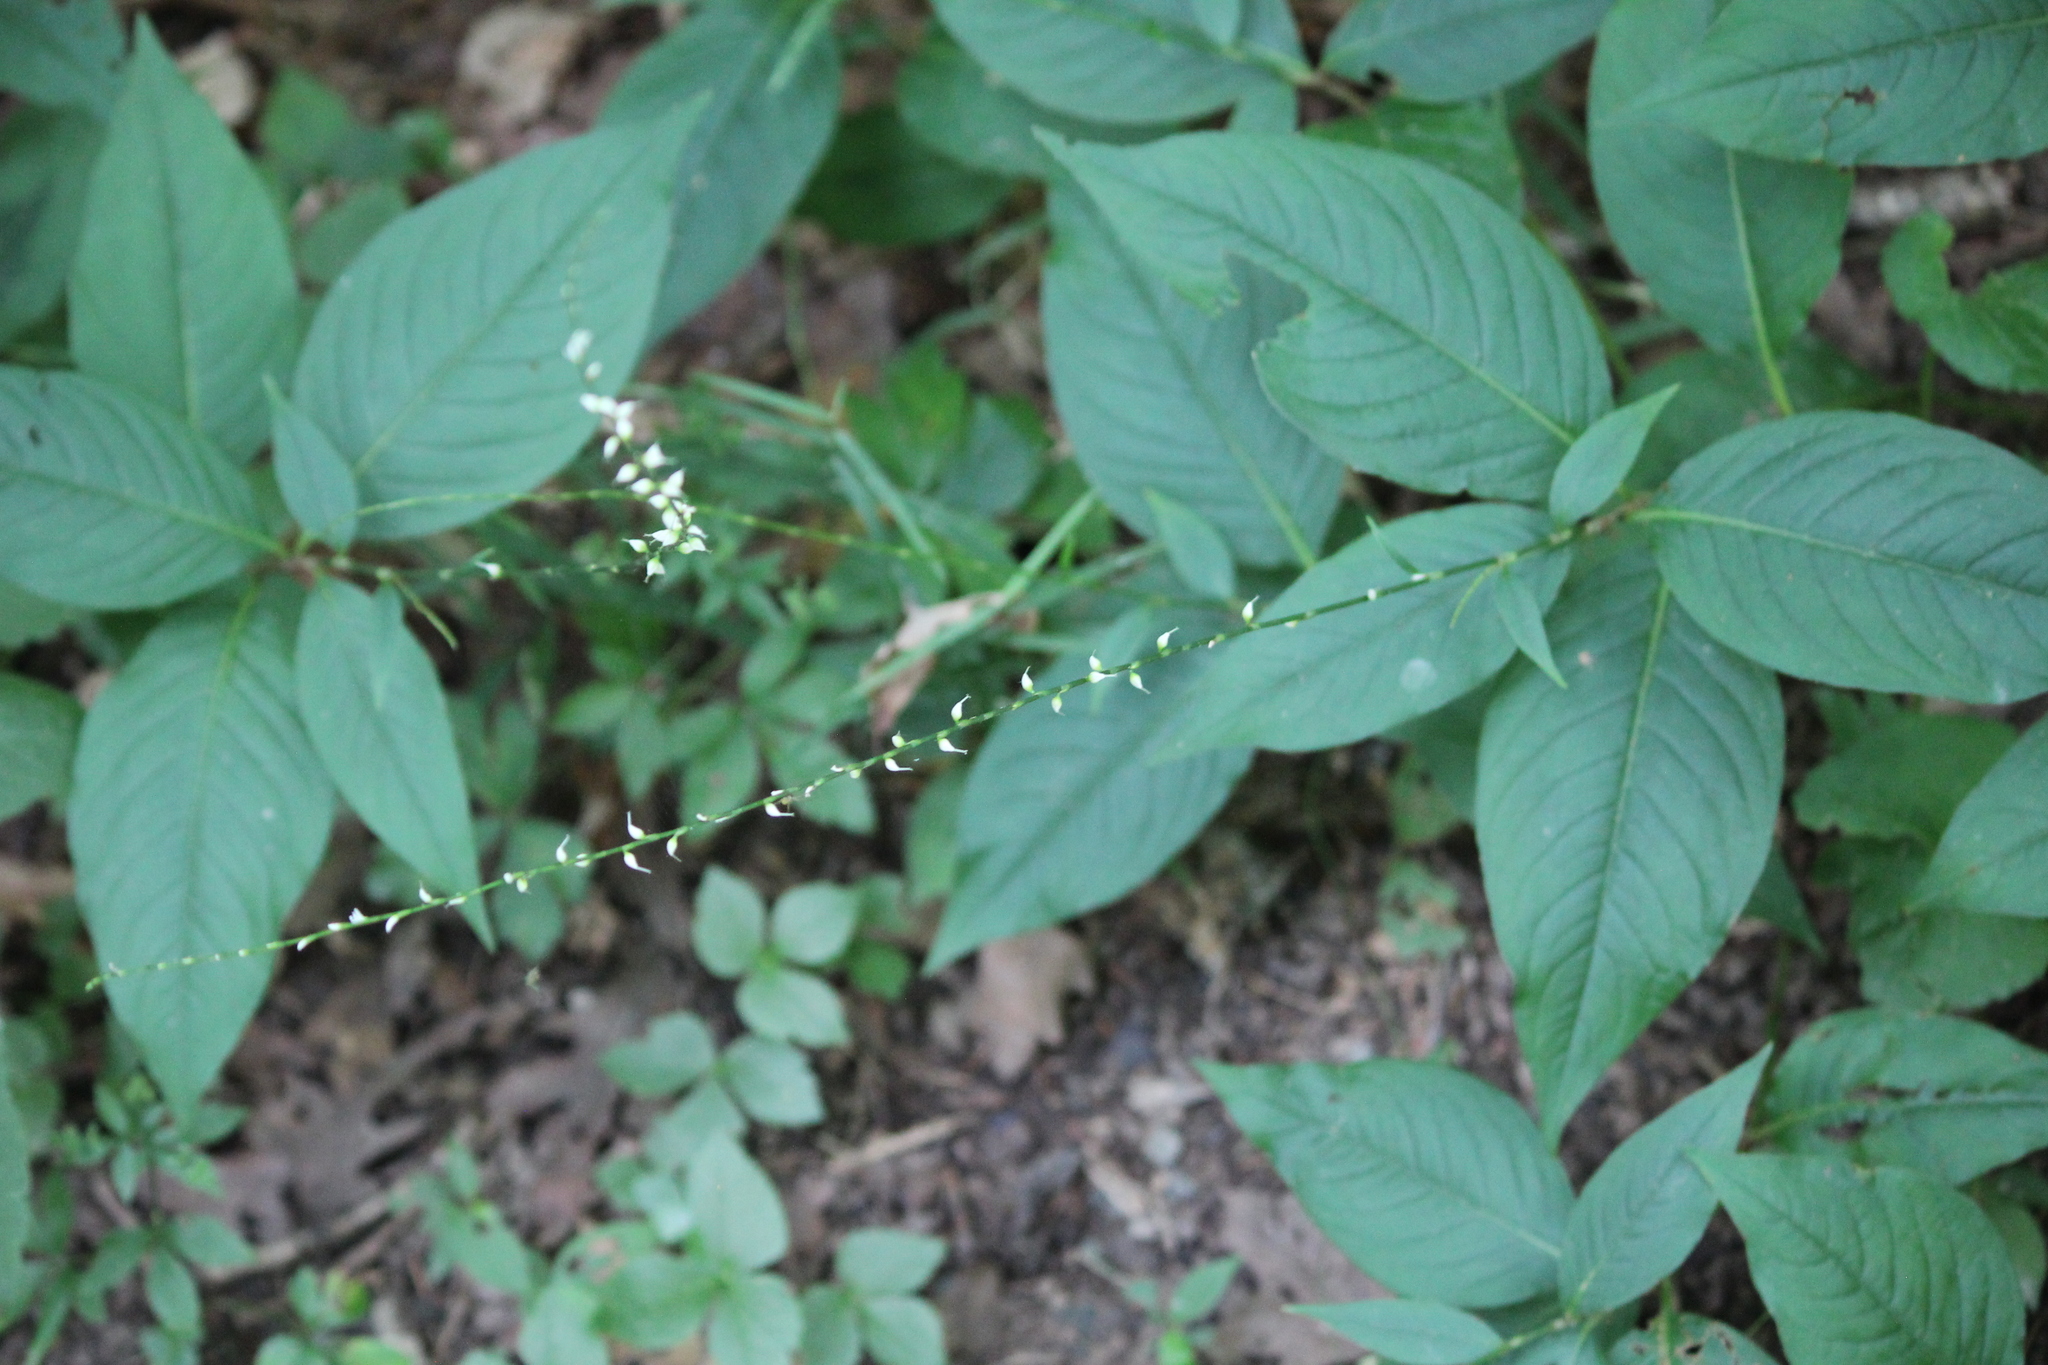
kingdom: Plantae
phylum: Tracheophyta
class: Magnoliopsida
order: Caryophyllales
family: Polygonaceae
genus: Persicaria
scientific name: Persicaria virginiana
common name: Jumpseed
